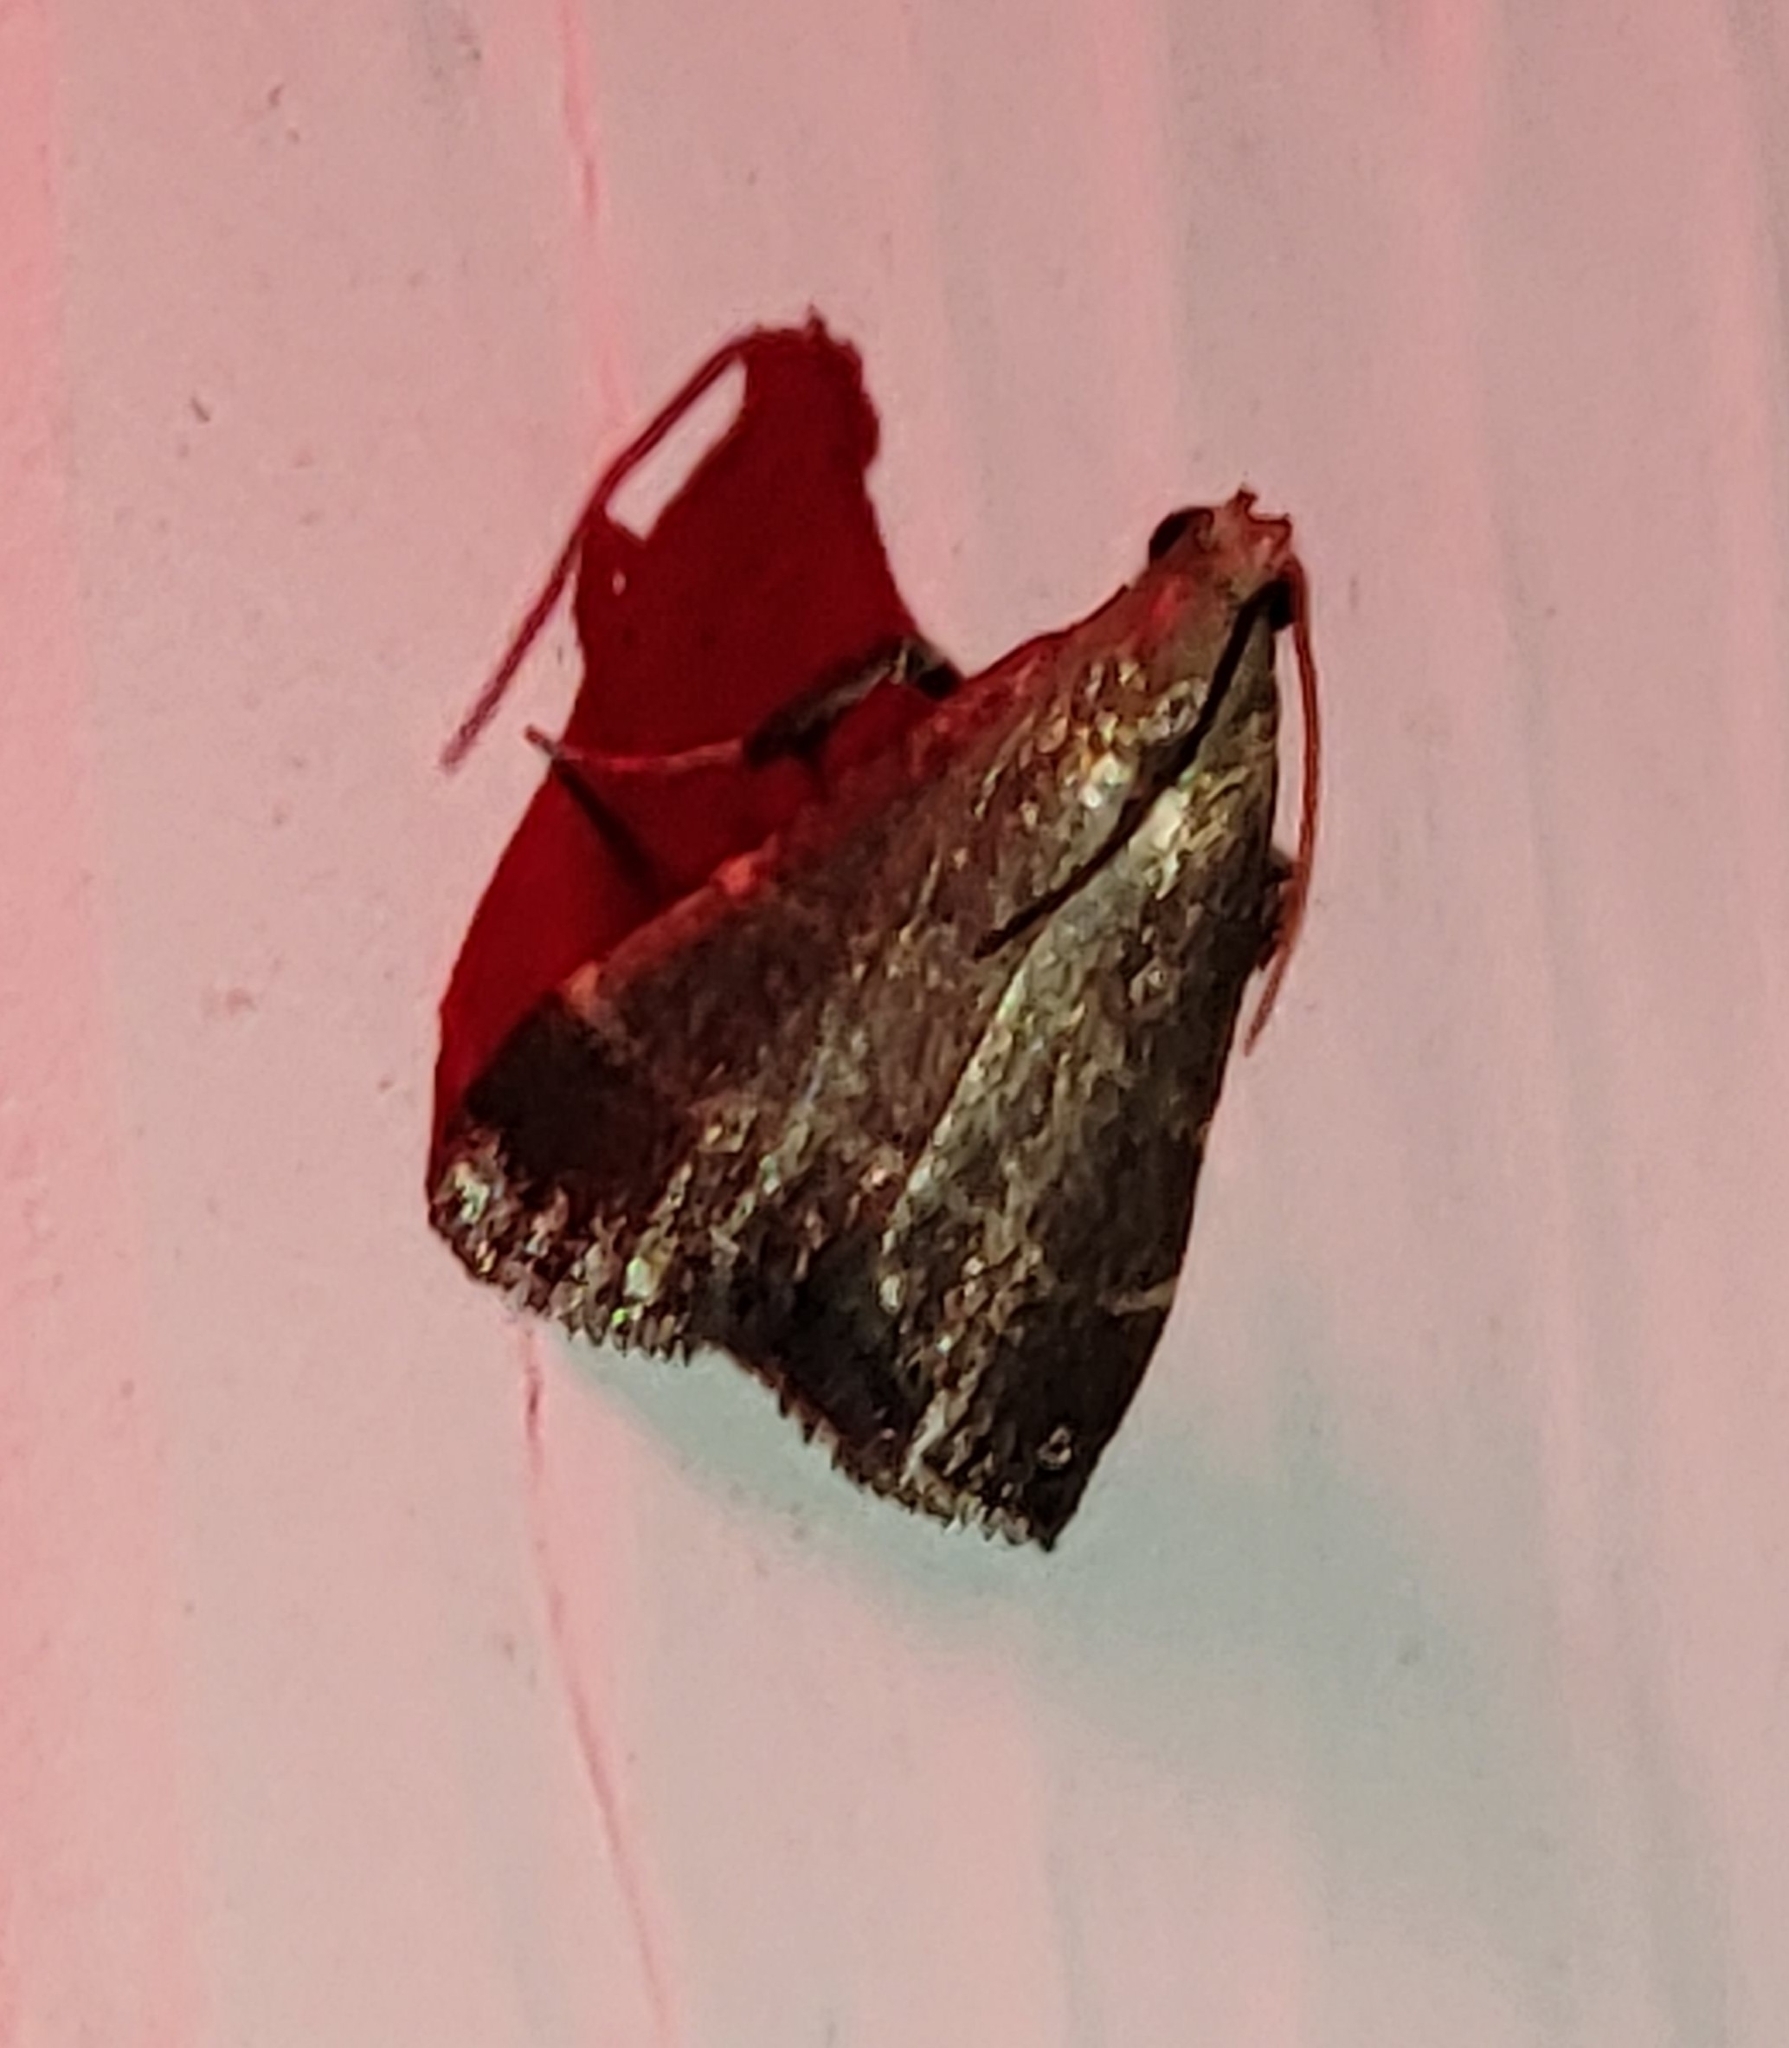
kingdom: Animalia
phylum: Arthropoda
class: Insecta
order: Lepidoptera
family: Pyralidae
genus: Arta
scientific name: Arta statalis
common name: Posturing arta moth
